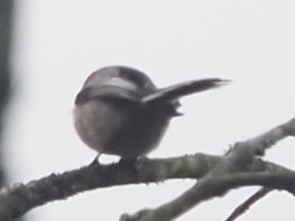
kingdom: Animalia
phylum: Chordata
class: Aves
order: Passeriformes
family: Aegithalidae
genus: Aegithalos
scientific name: Aegithalos caudatus
